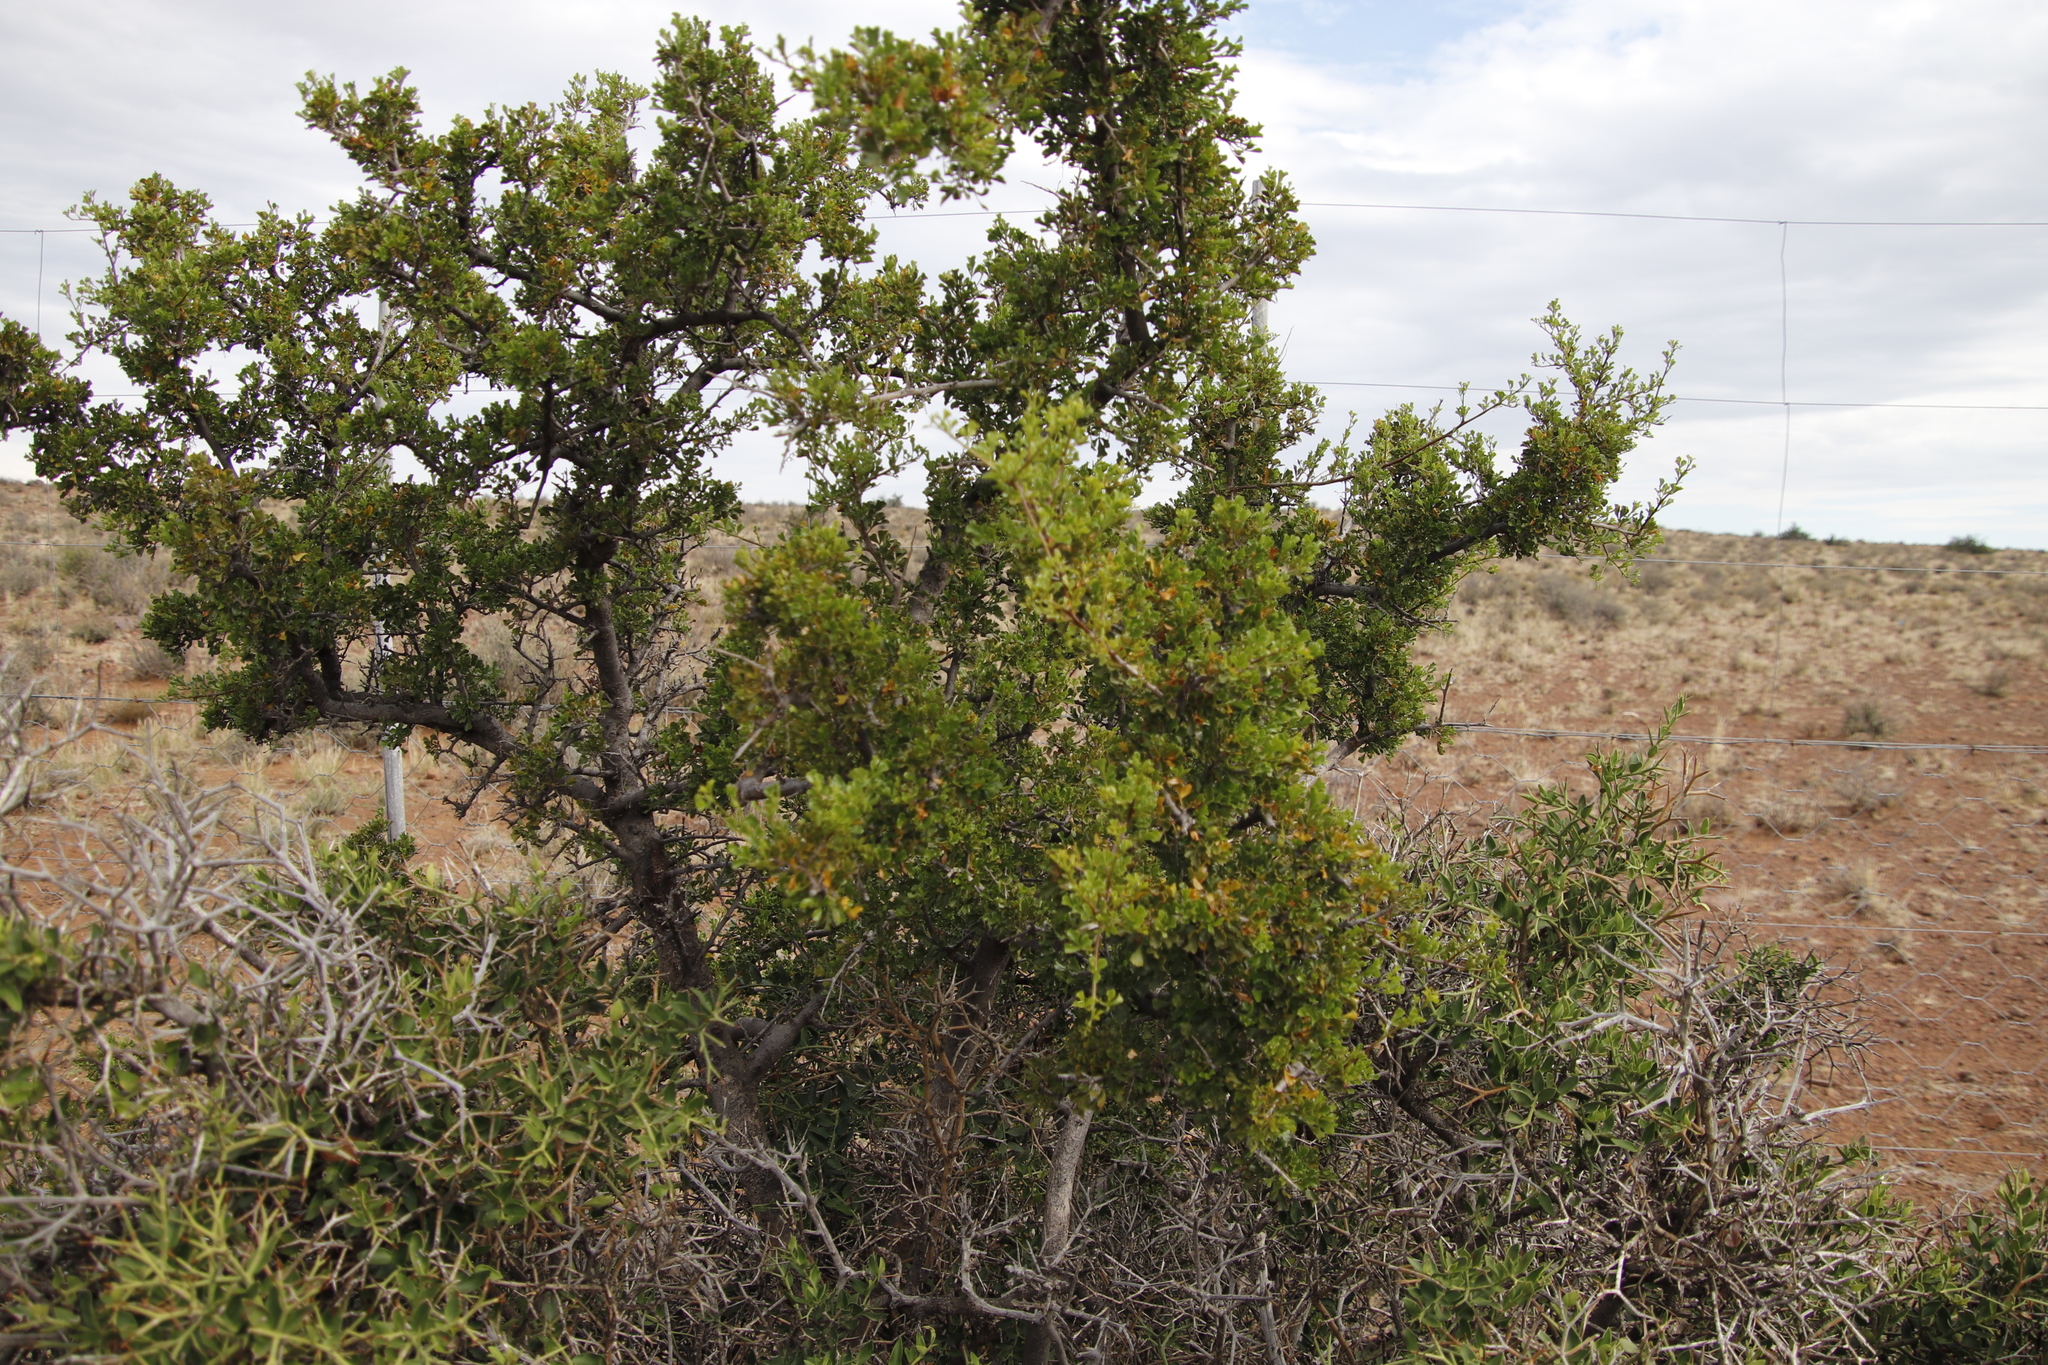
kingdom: Plantae
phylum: Tracheophyta
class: Magnoliopsida
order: Sapindales
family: Anacardiaceae
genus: Searsia
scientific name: Searsia burchellii
